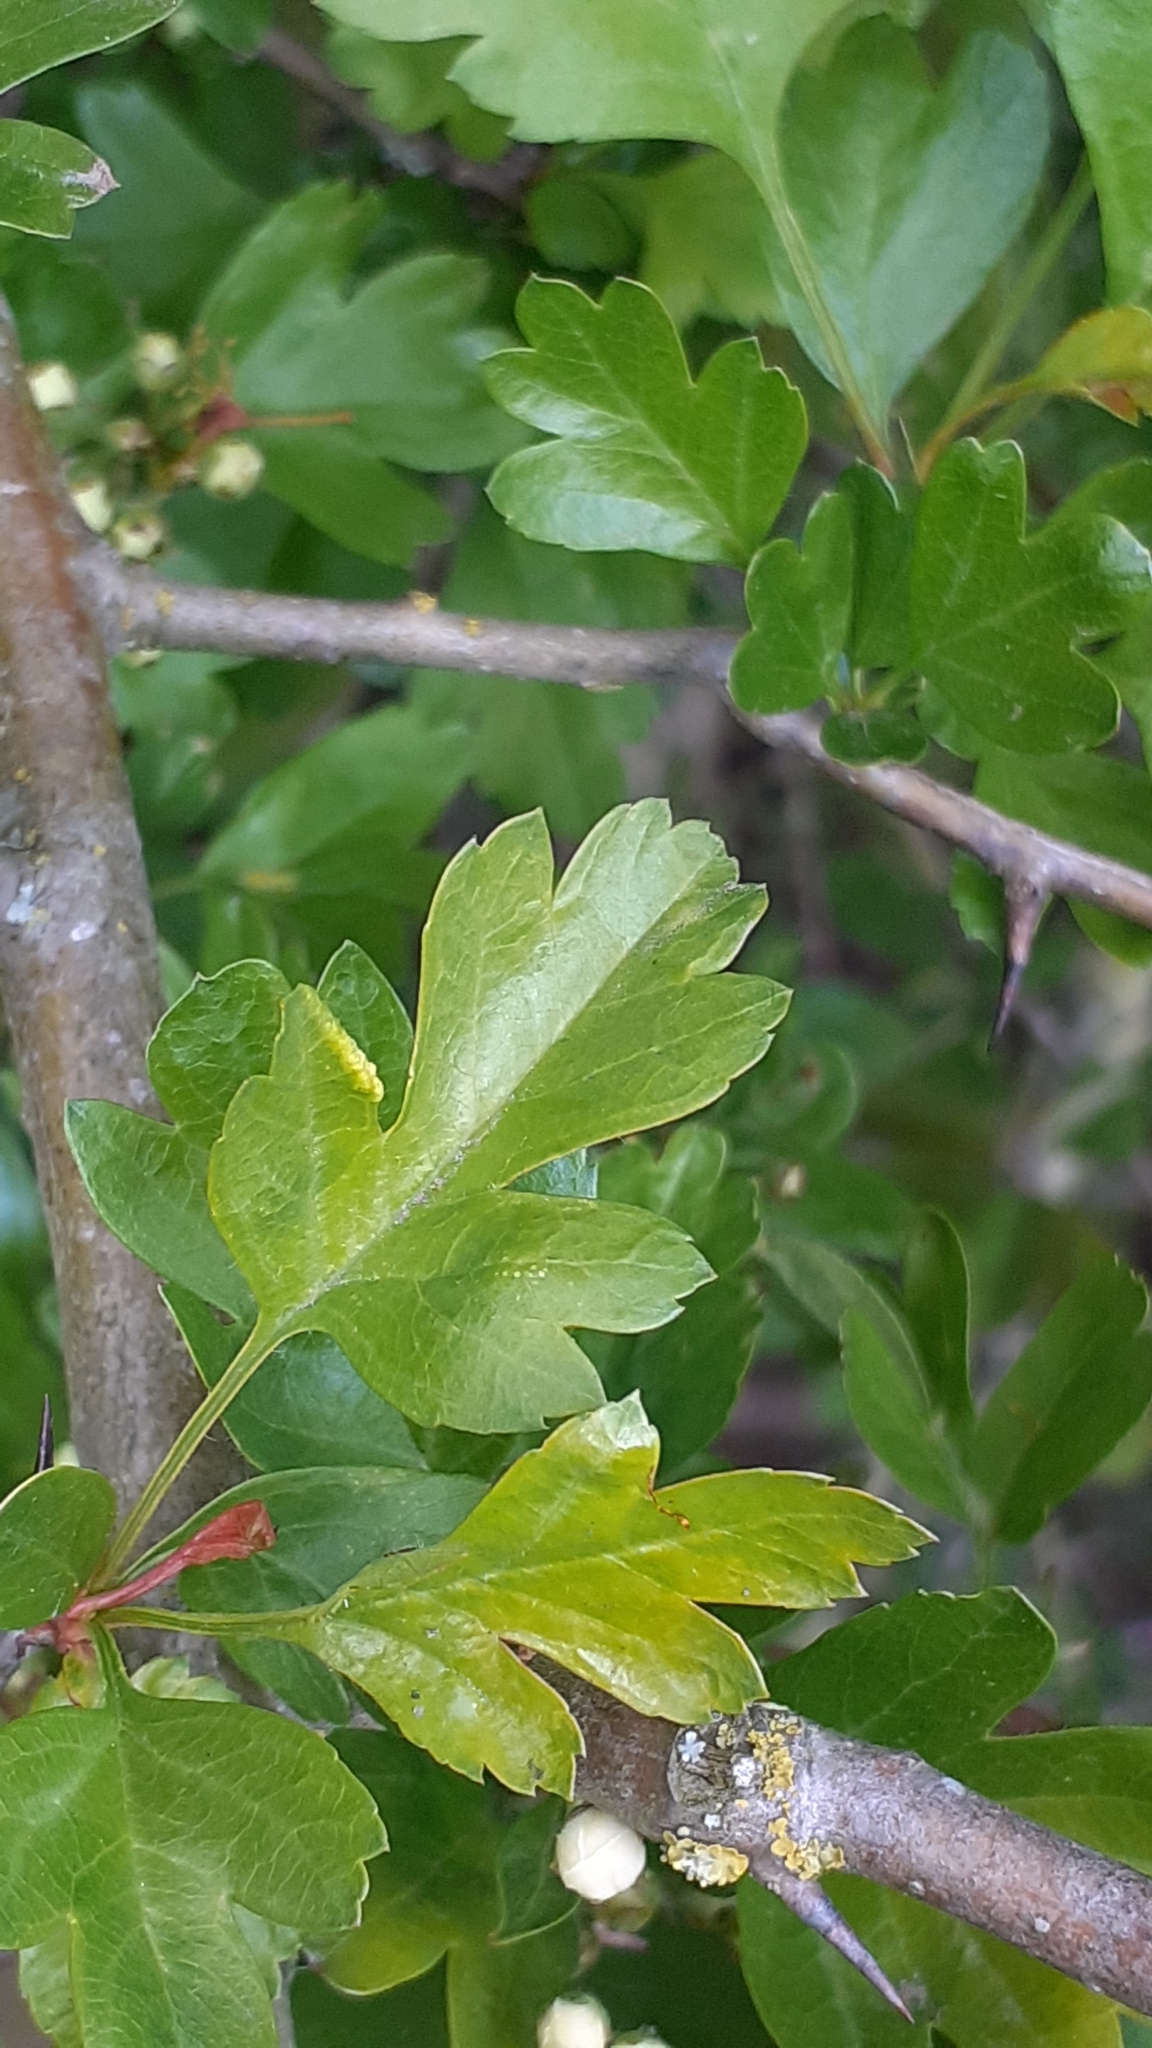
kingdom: Animalia
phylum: Arthropoda
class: Arachnida
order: Trombidiformes
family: Eriophyidae
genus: Phyllocoptes
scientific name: Phyllocoptes goniothorax
